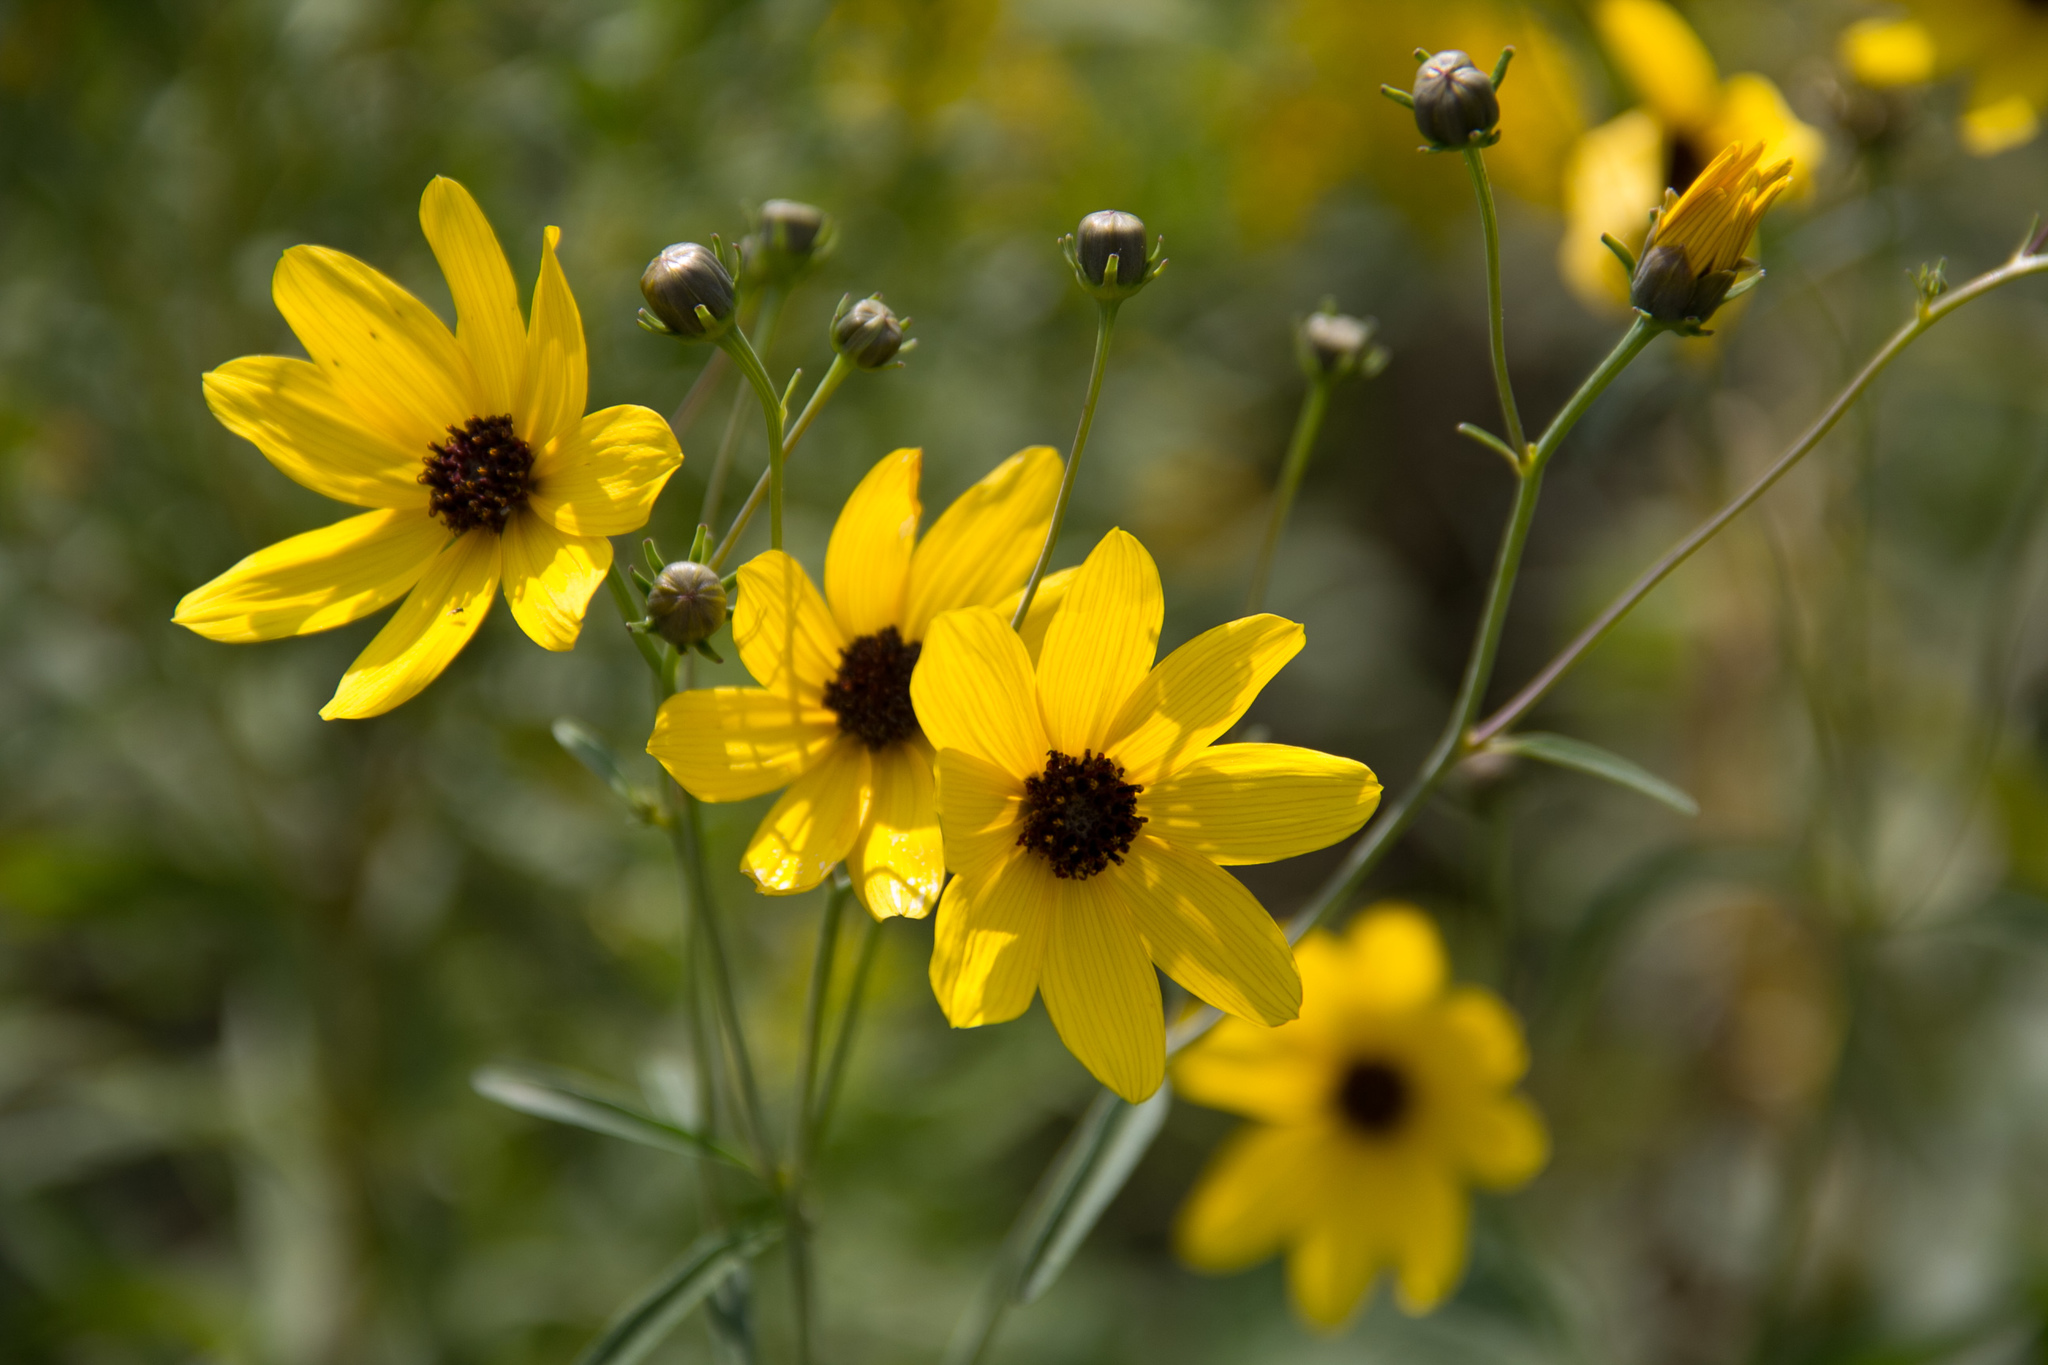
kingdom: Plantae
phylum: Tracheophyta
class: Magnoliopsida
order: Asterales
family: Asteraceae
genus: Coreopsis
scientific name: Coreopsis tripteris
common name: Tall coreopsis
